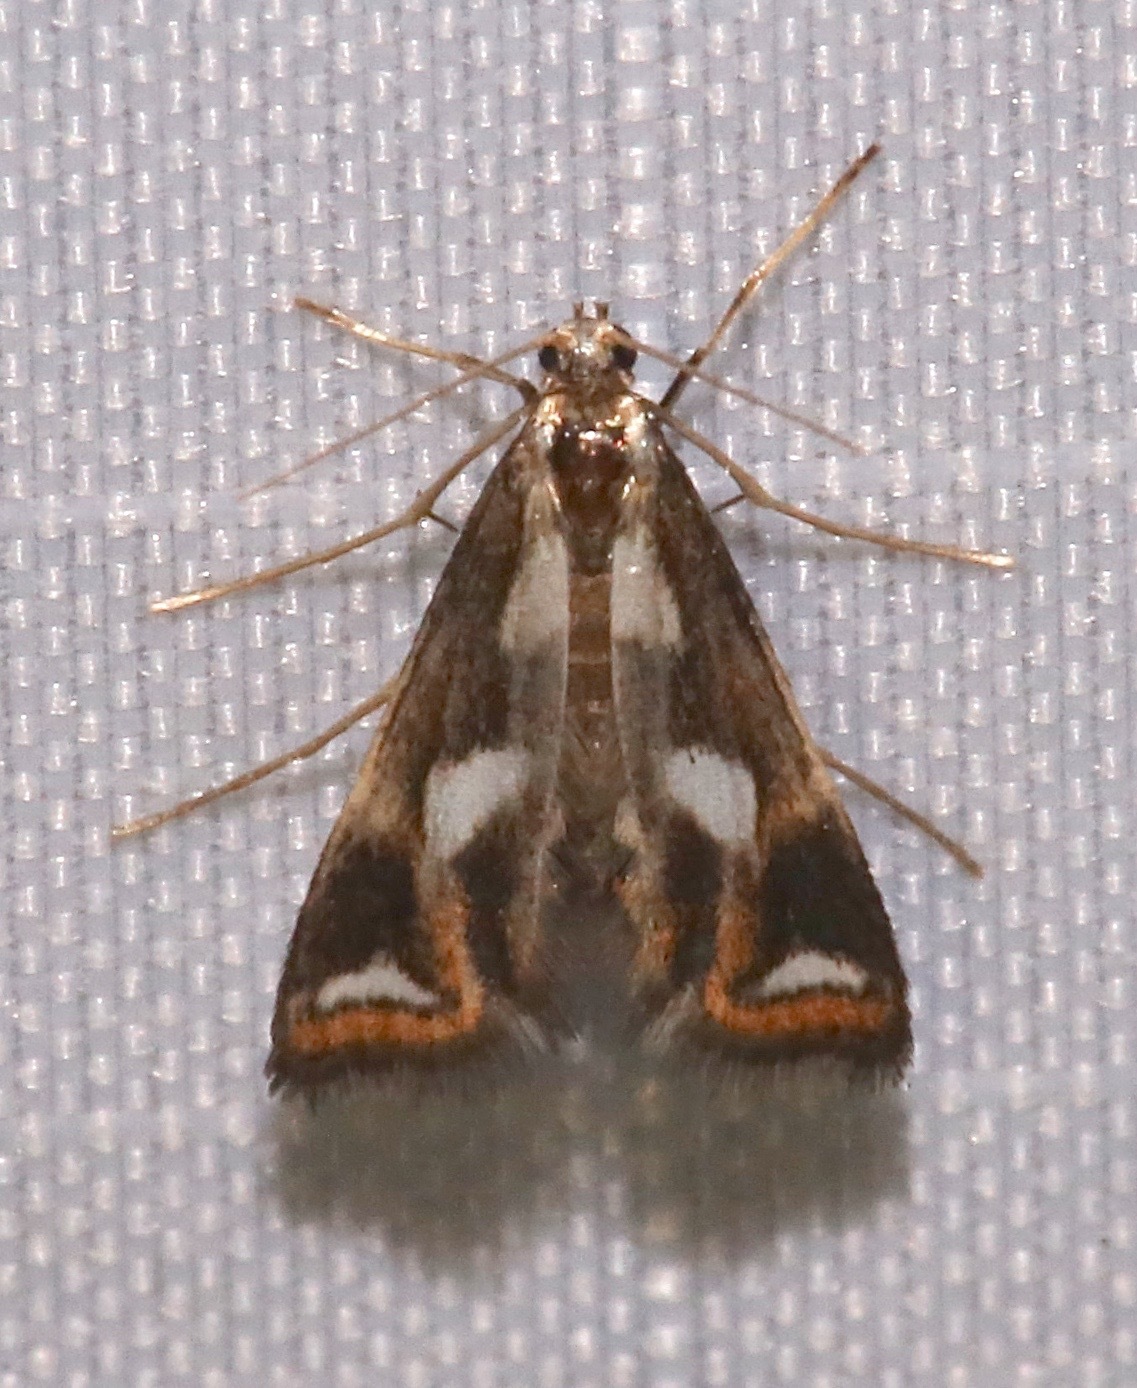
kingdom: Animalia
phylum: Arthropoda
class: Insecta
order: Lepidoptera
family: Crambidae
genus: Chrysendeton
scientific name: Chrysendeton imitabilis
